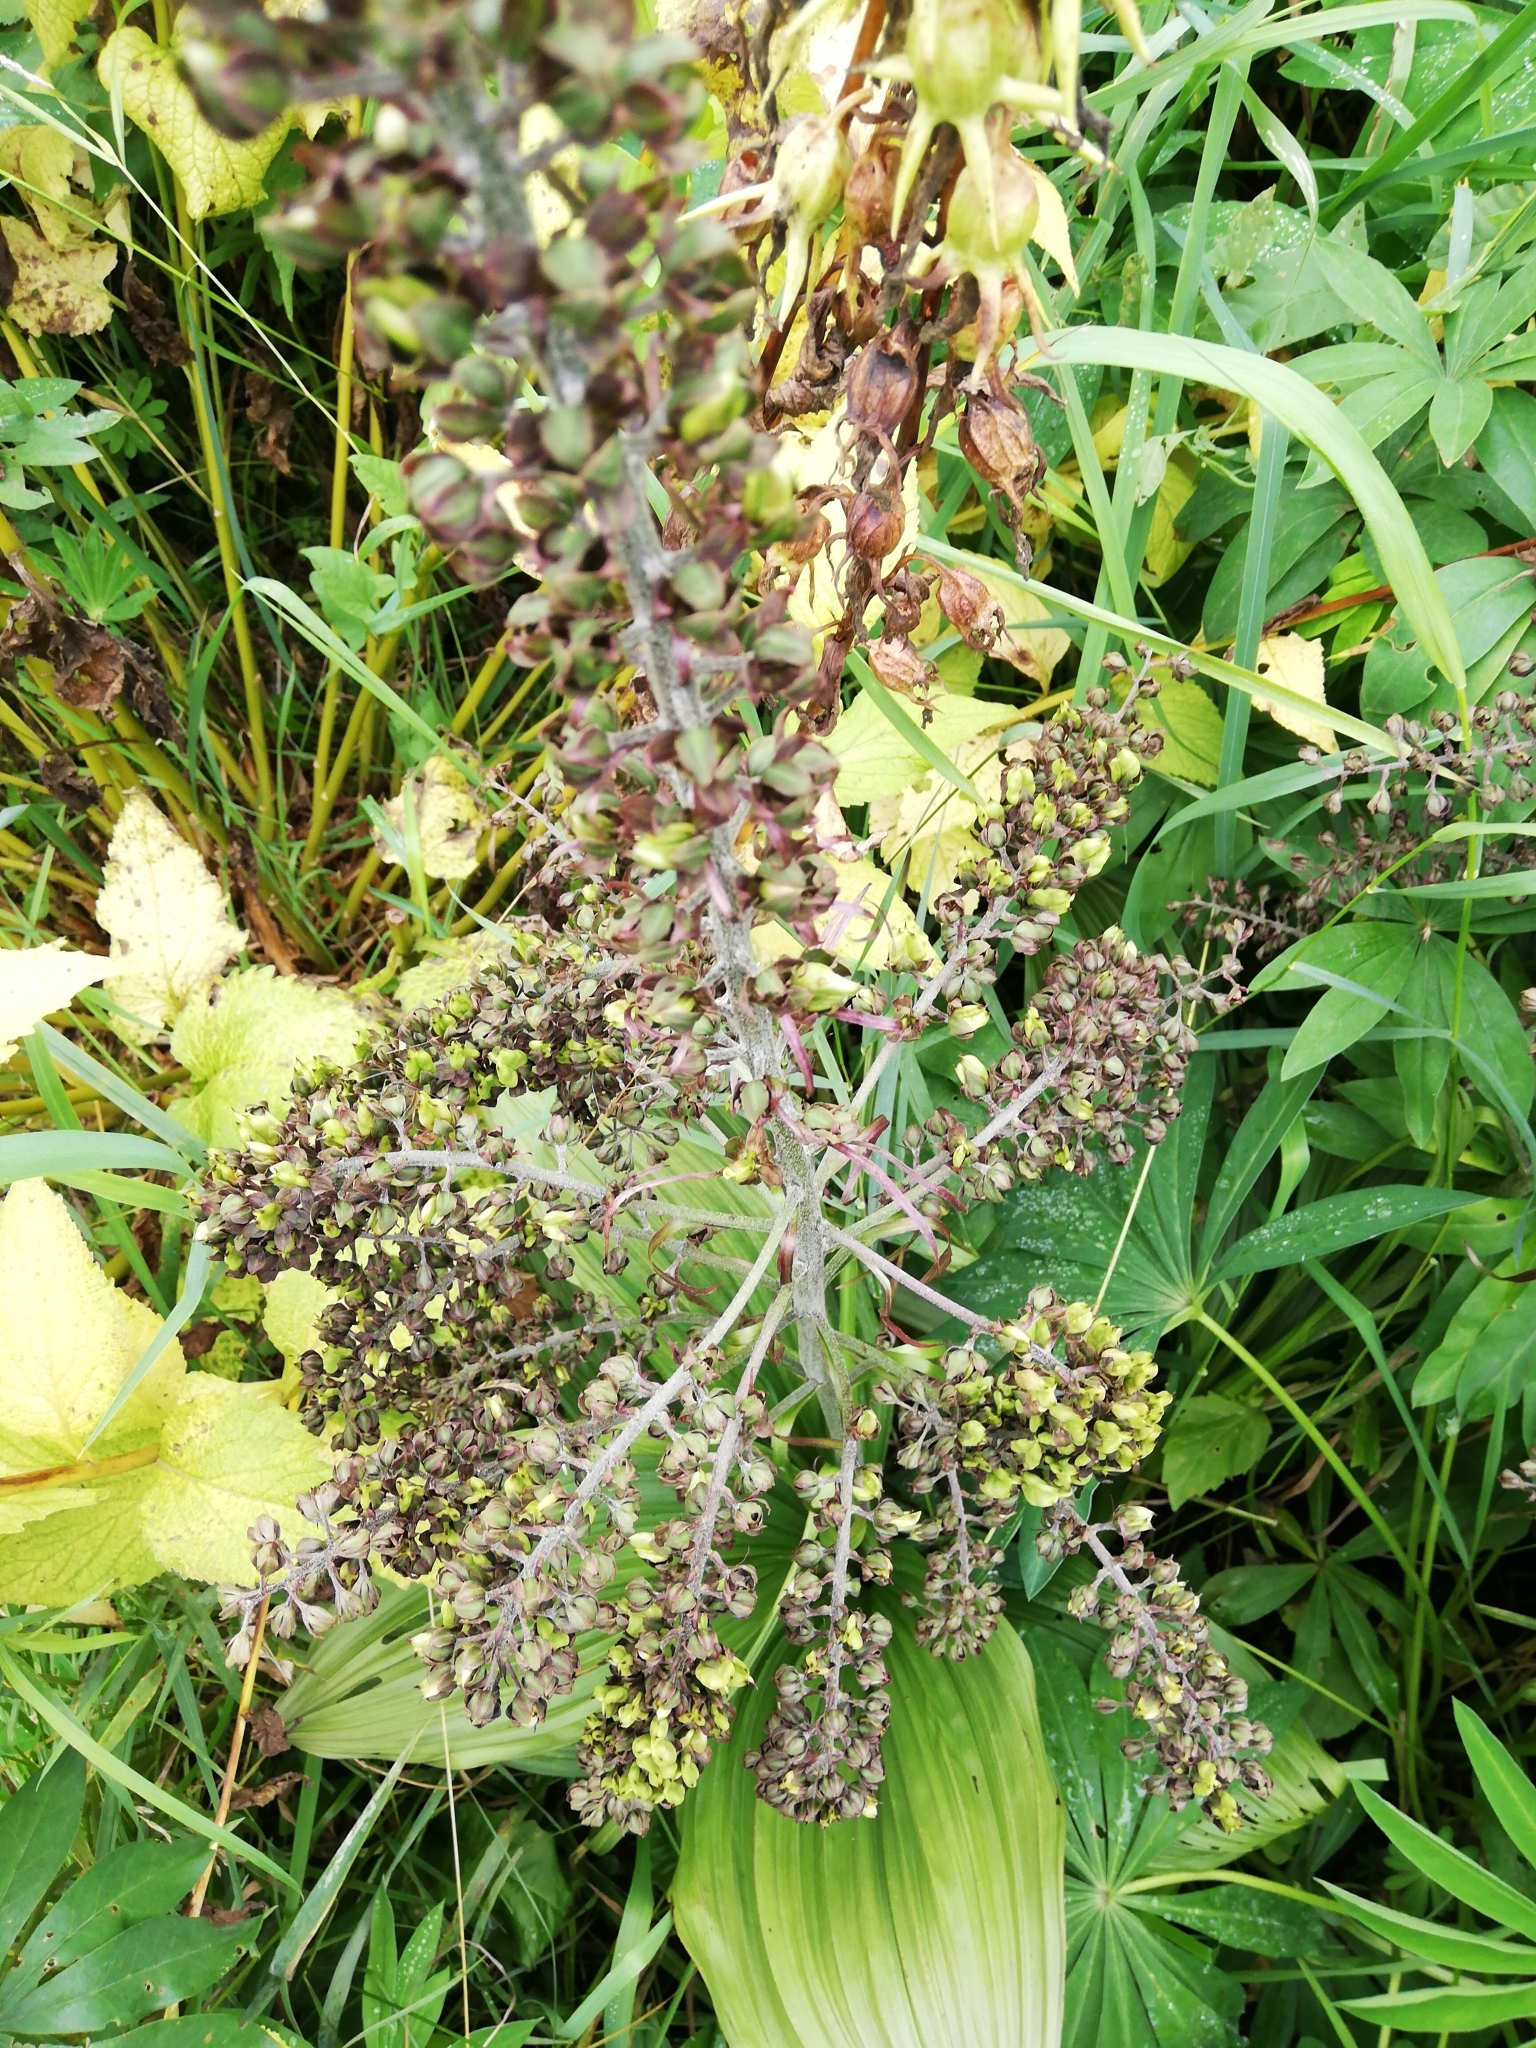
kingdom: Plantae
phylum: Tracheophyta
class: Liliopsida
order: Liliales
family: Melanthiaceae
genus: Veratrum
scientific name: Veratrum nigrum
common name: Black veratrum
